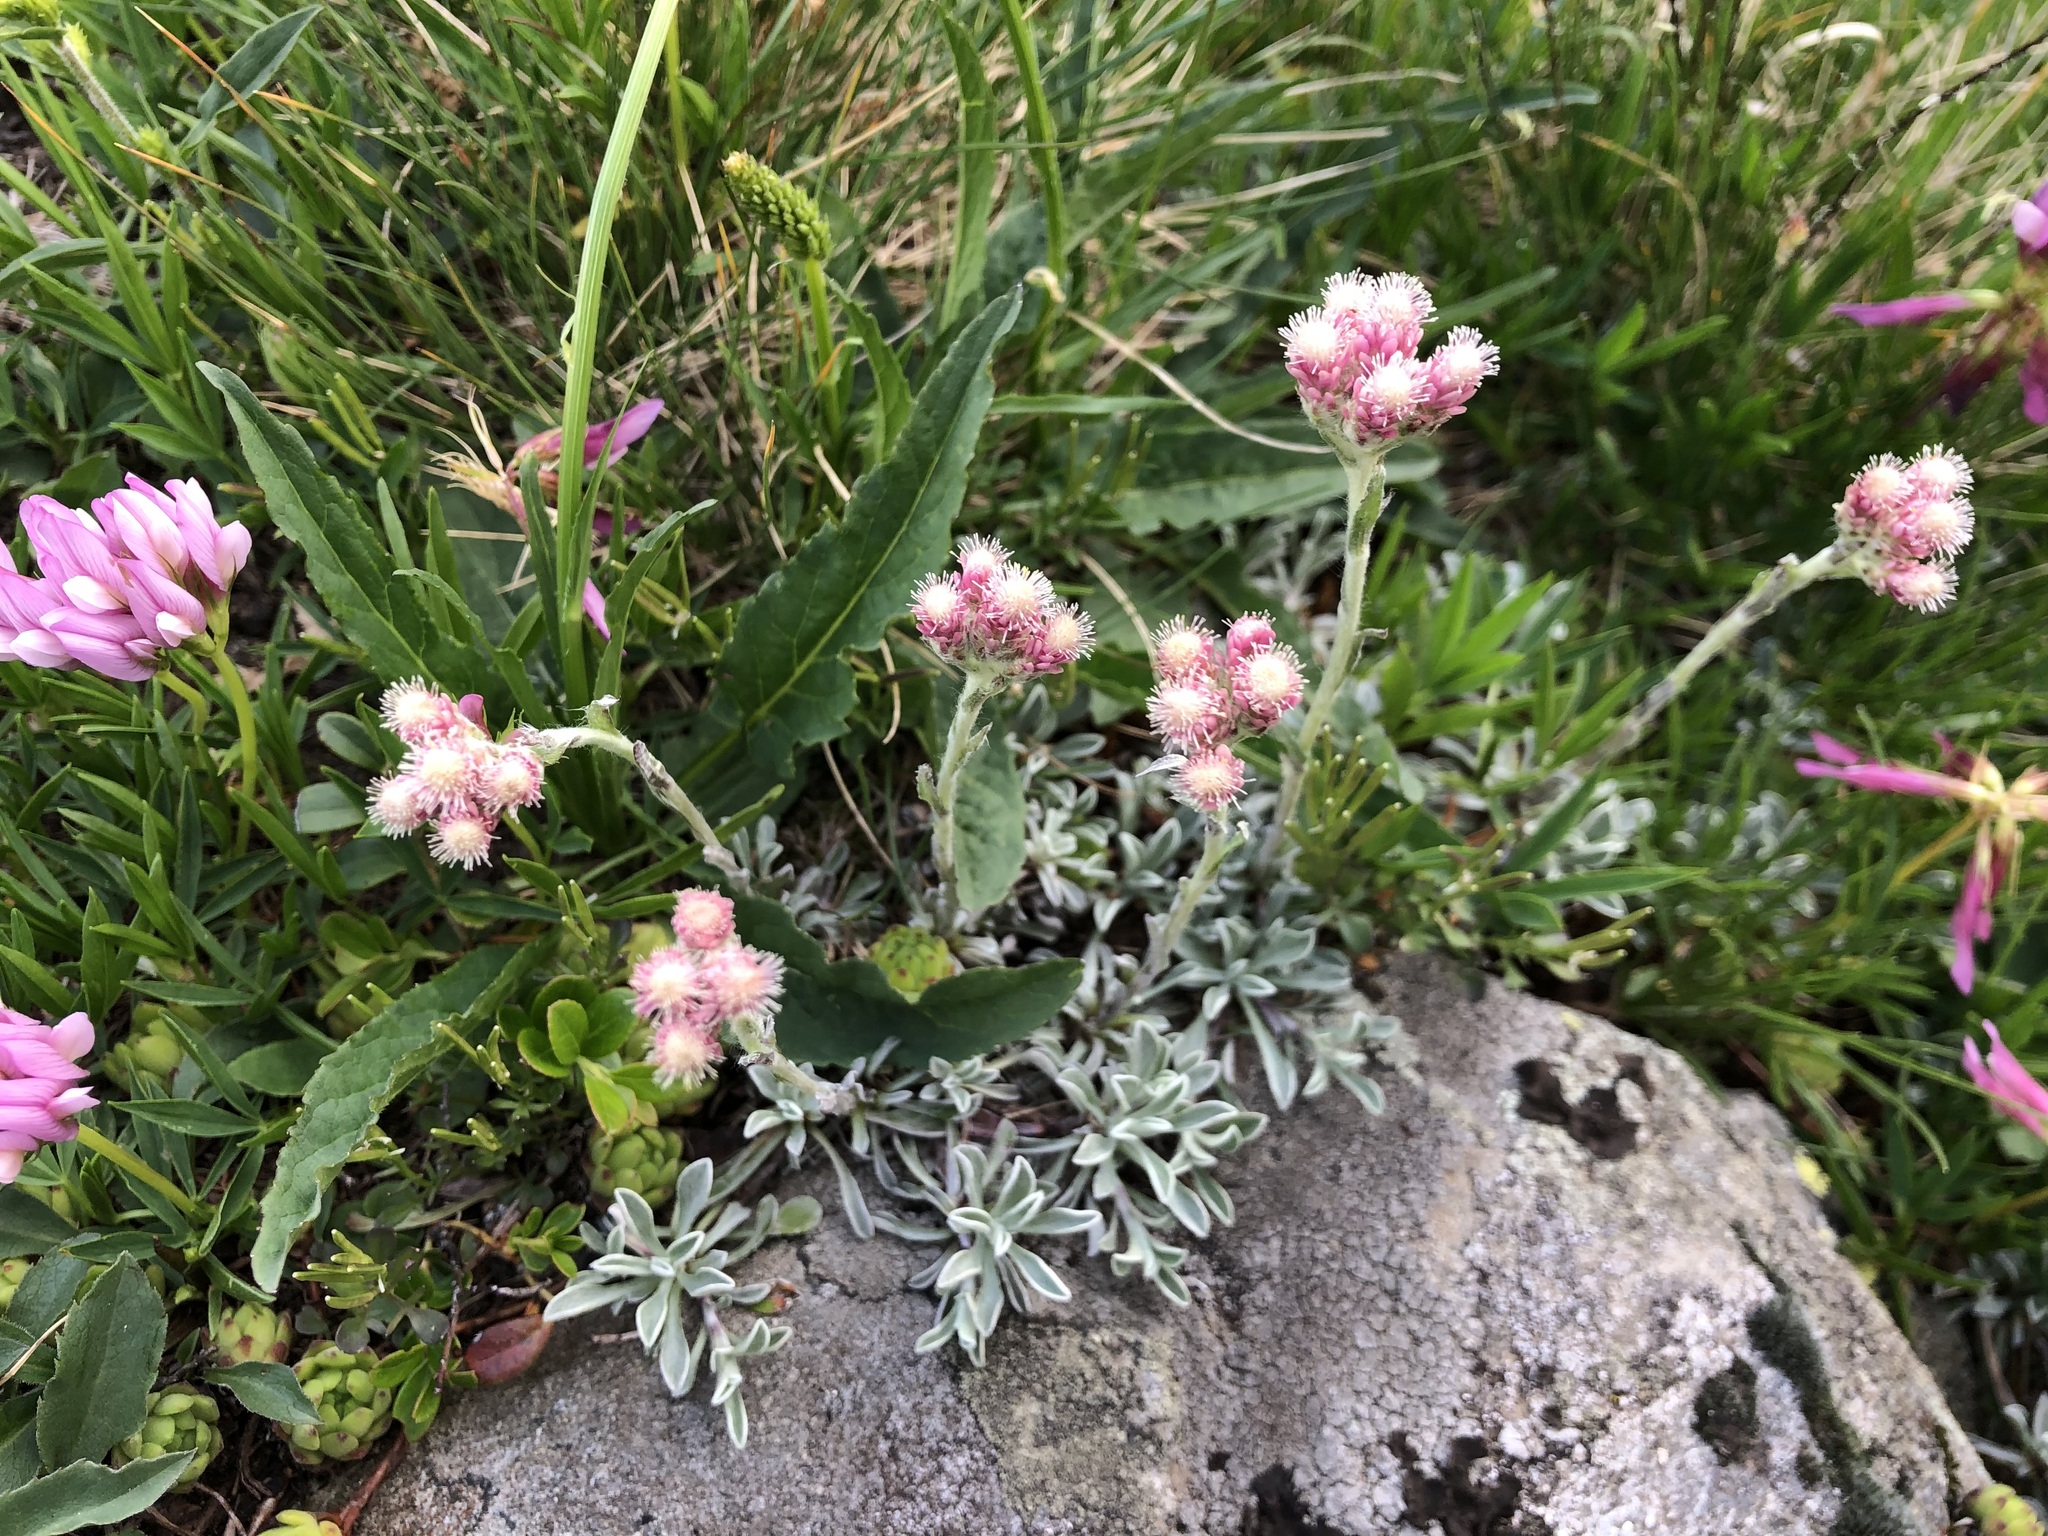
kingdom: Plantae
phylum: Tracheophyta
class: Magnoliopsida
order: Asterales
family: Asteraceae
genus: Antennaria
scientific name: Antennaria dioica
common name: Mountain everlasting
